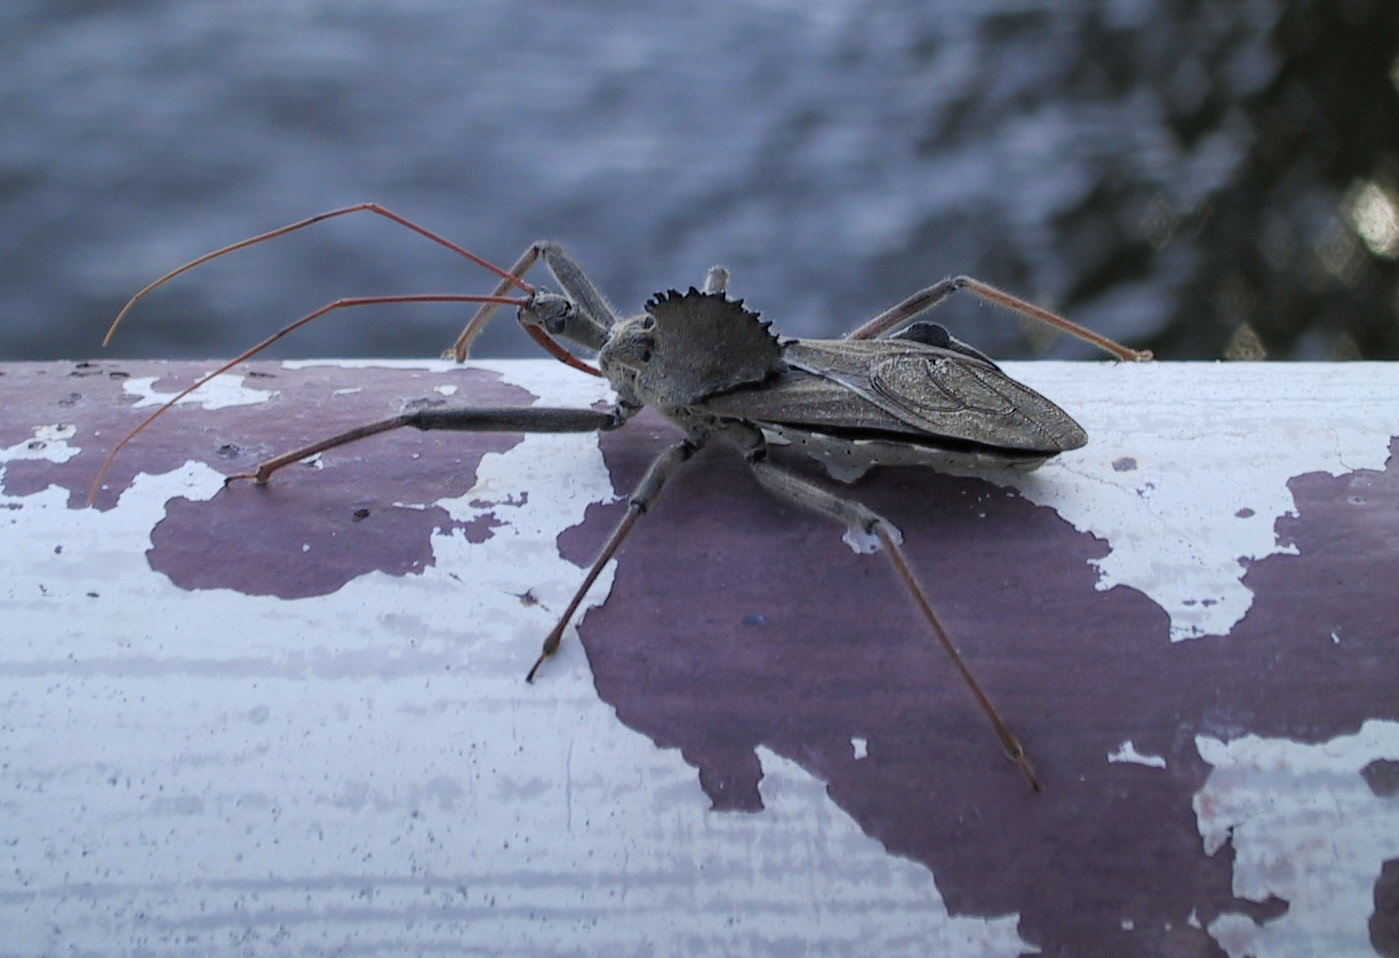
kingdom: Animalia
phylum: Arthropoda
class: Insecta
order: Hemiptera
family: Reduviidae
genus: Arilus
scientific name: Arilus cristatus
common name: North american wheel bug
